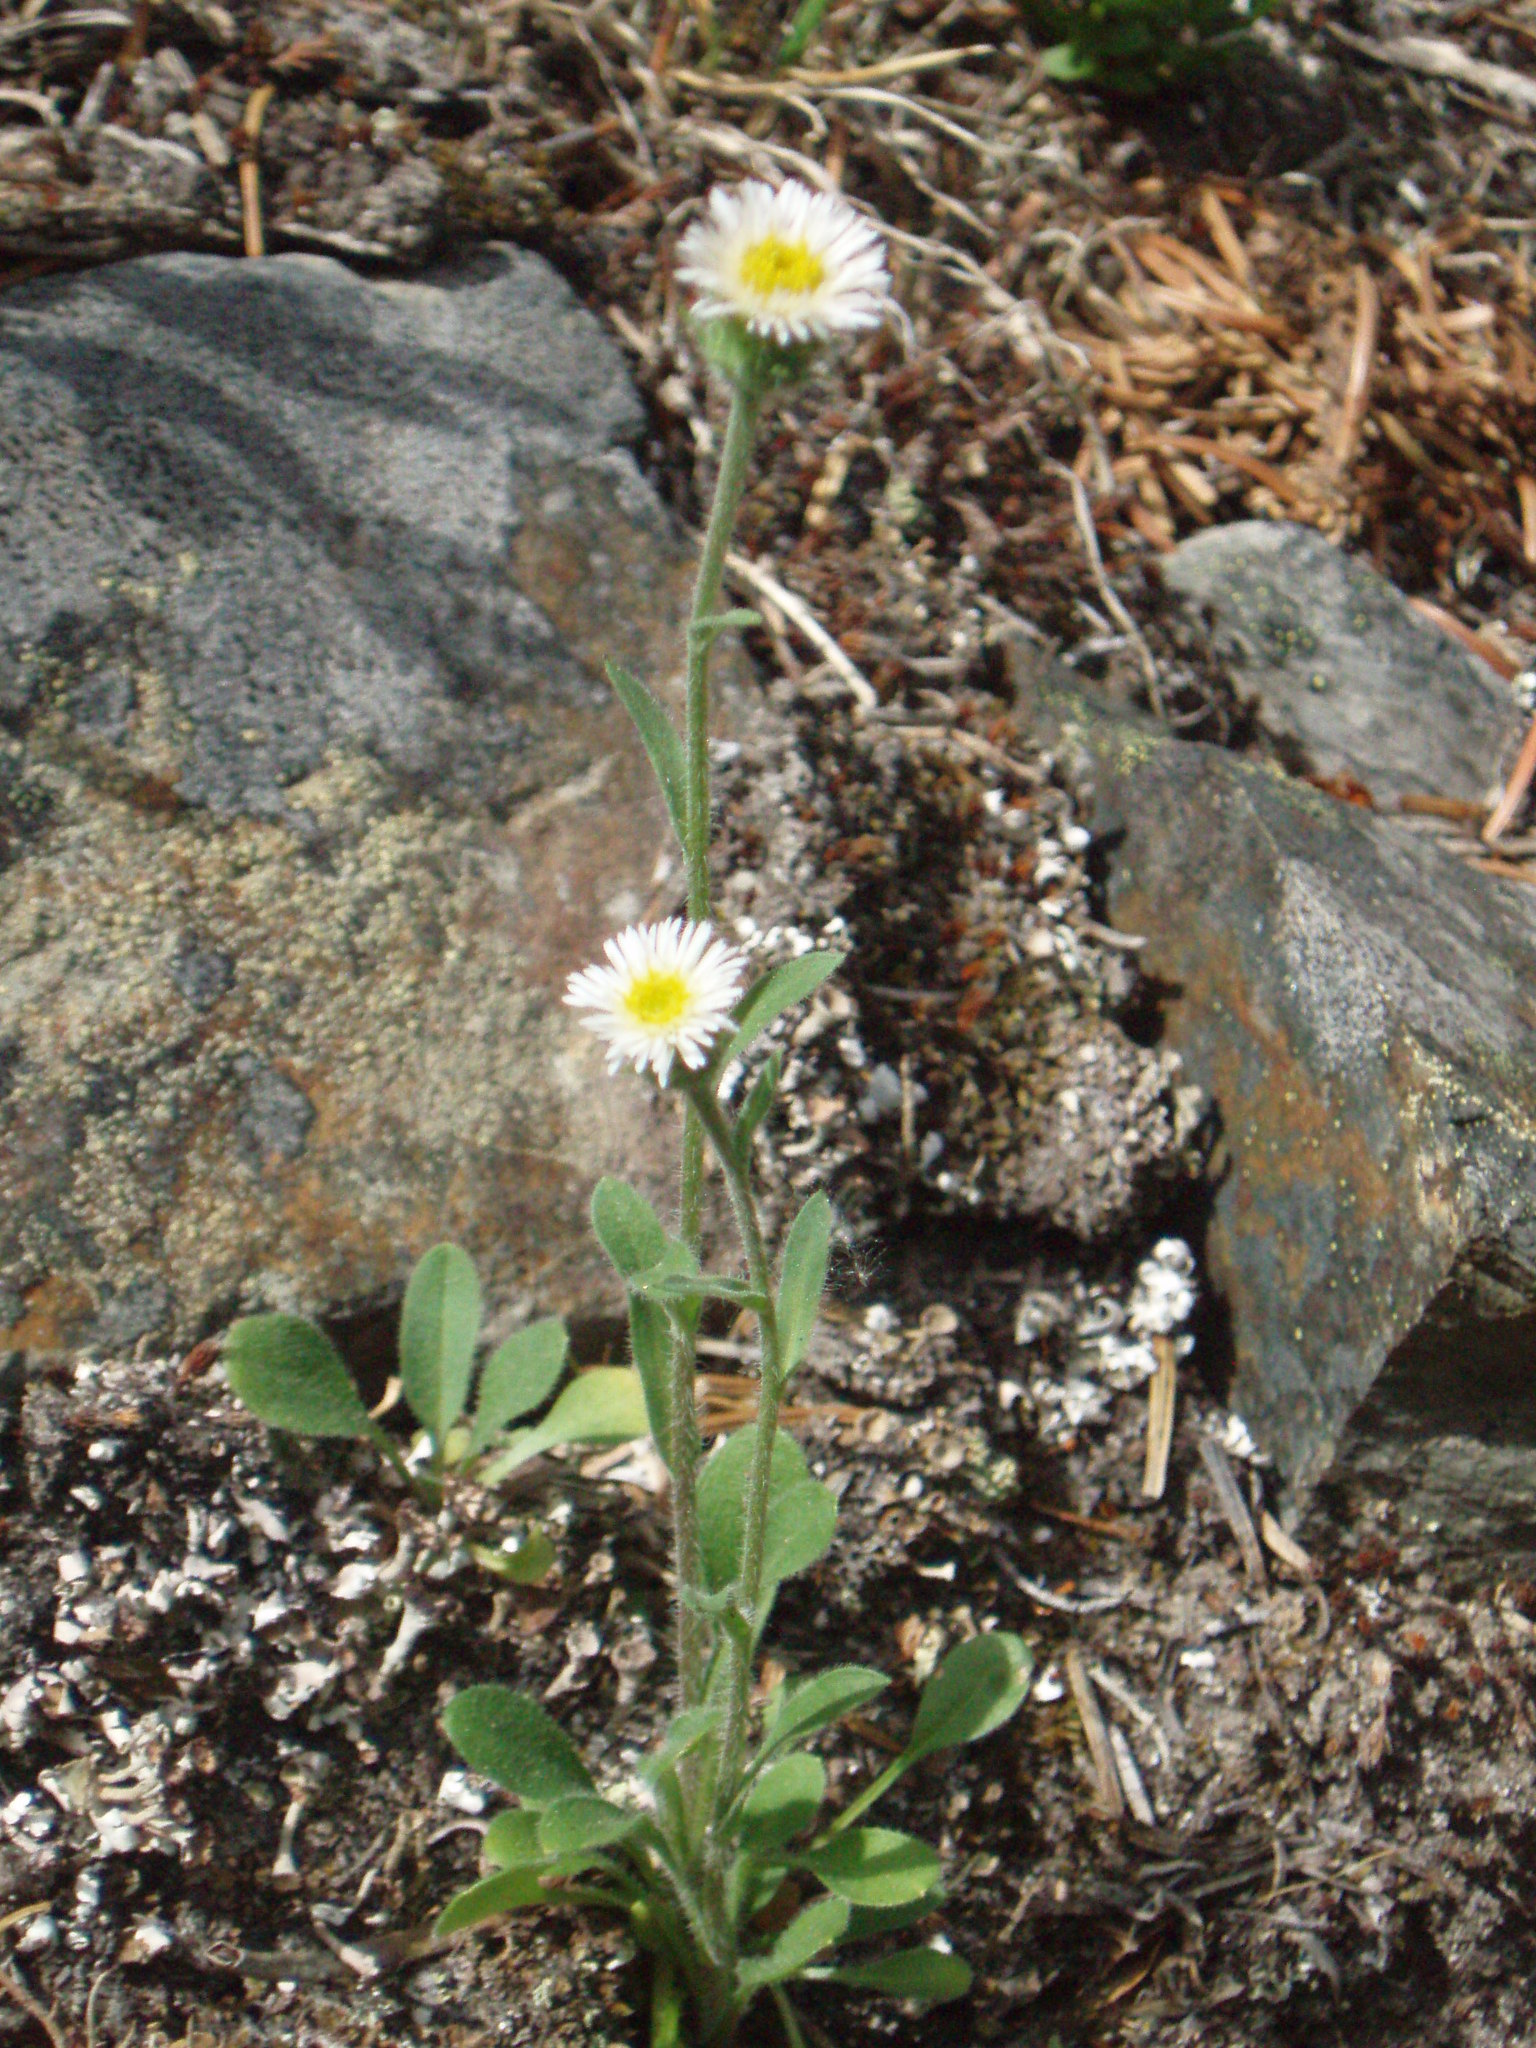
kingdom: Plantae
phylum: Tracheophyta
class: Magnoliopsida
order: Asterales
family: Asteraceae
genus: Erigeron
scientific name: Erigeron nivalis
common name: Snow fleabane
